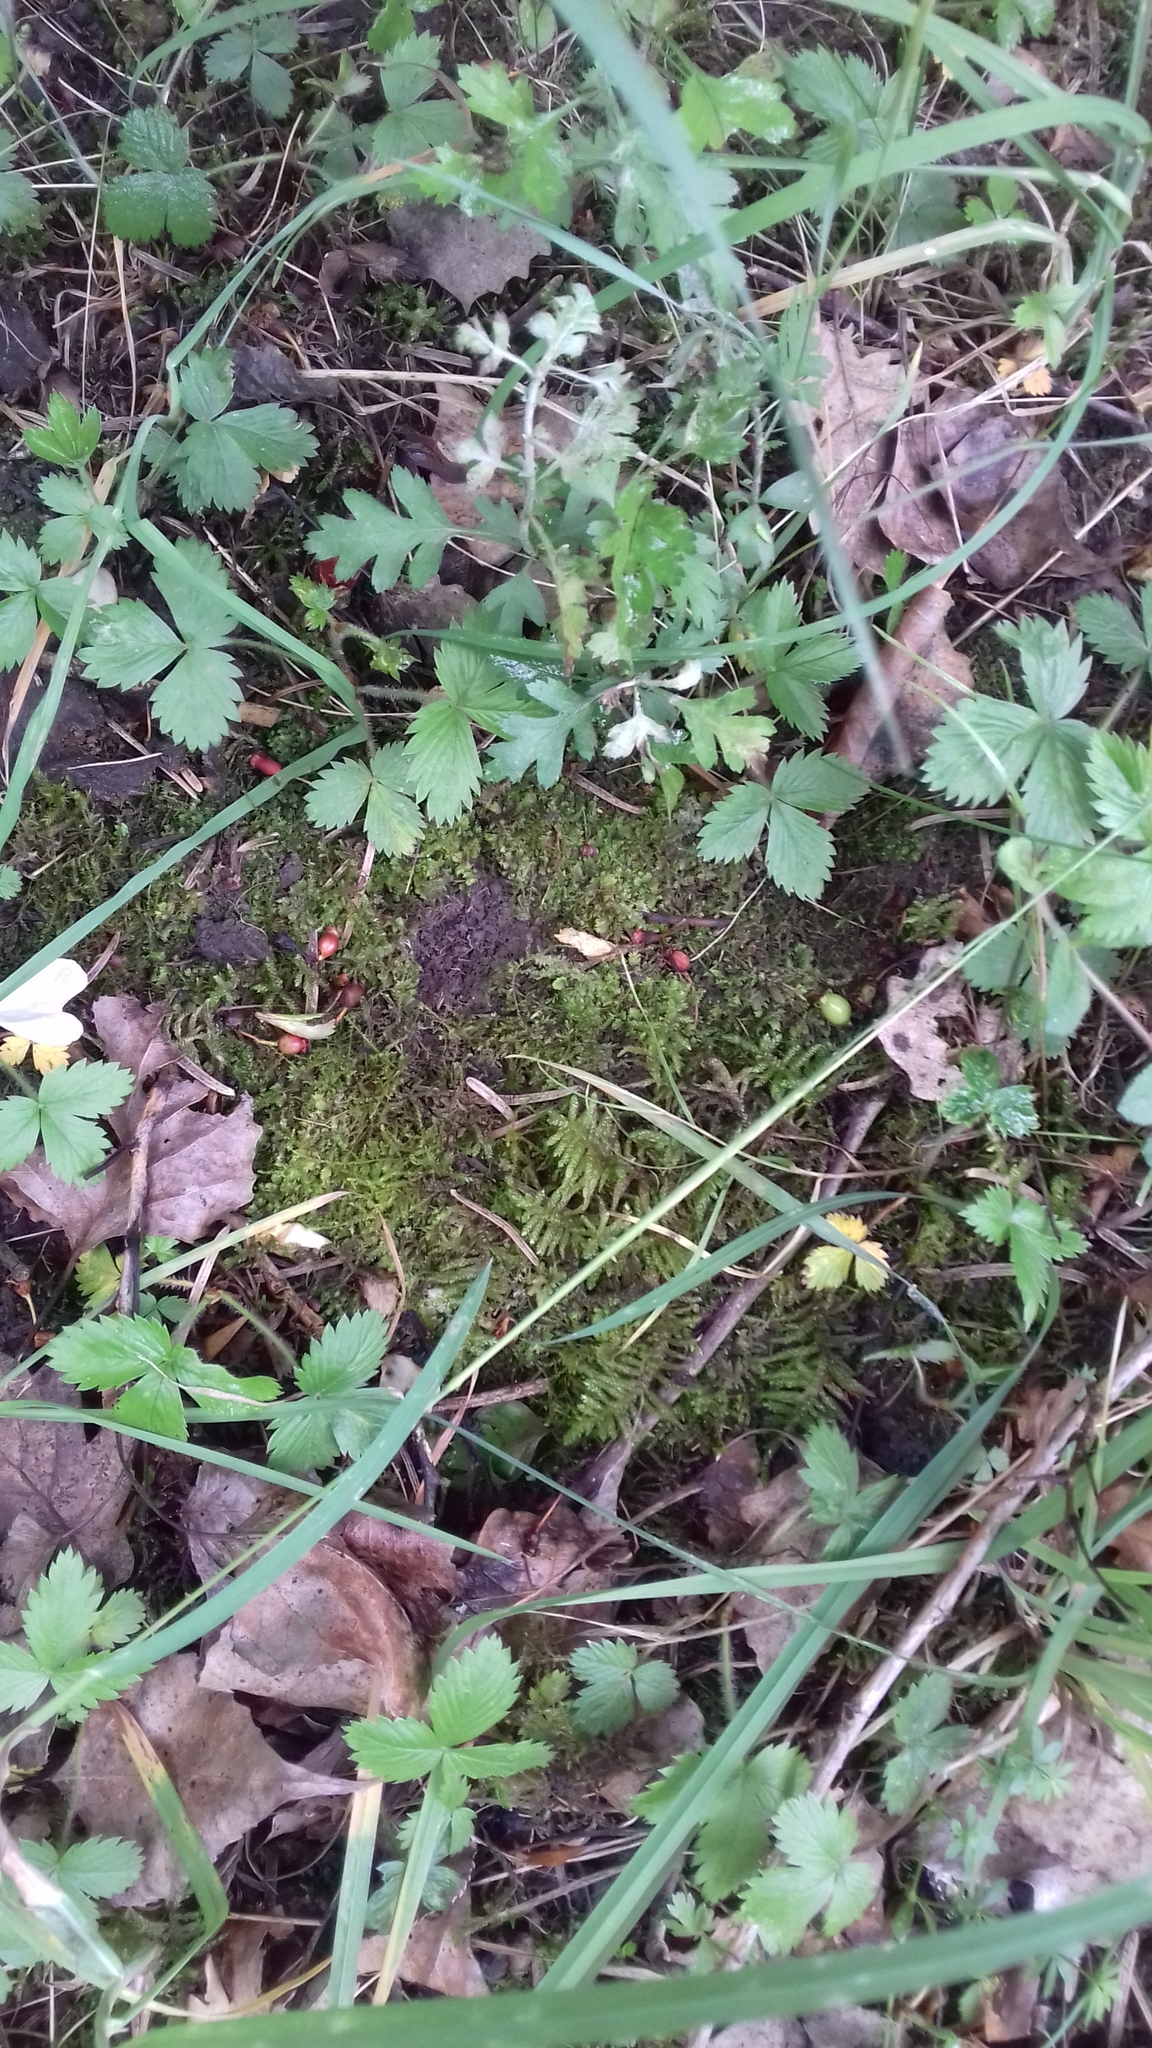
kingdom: Plantae
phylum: Bryophyta
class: Bryopsida
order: Hypnales
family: Brachytheciaceae
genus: Pseudoscleropodium
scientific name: Pseudoscleropodium purum
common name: Neat feather-moss
